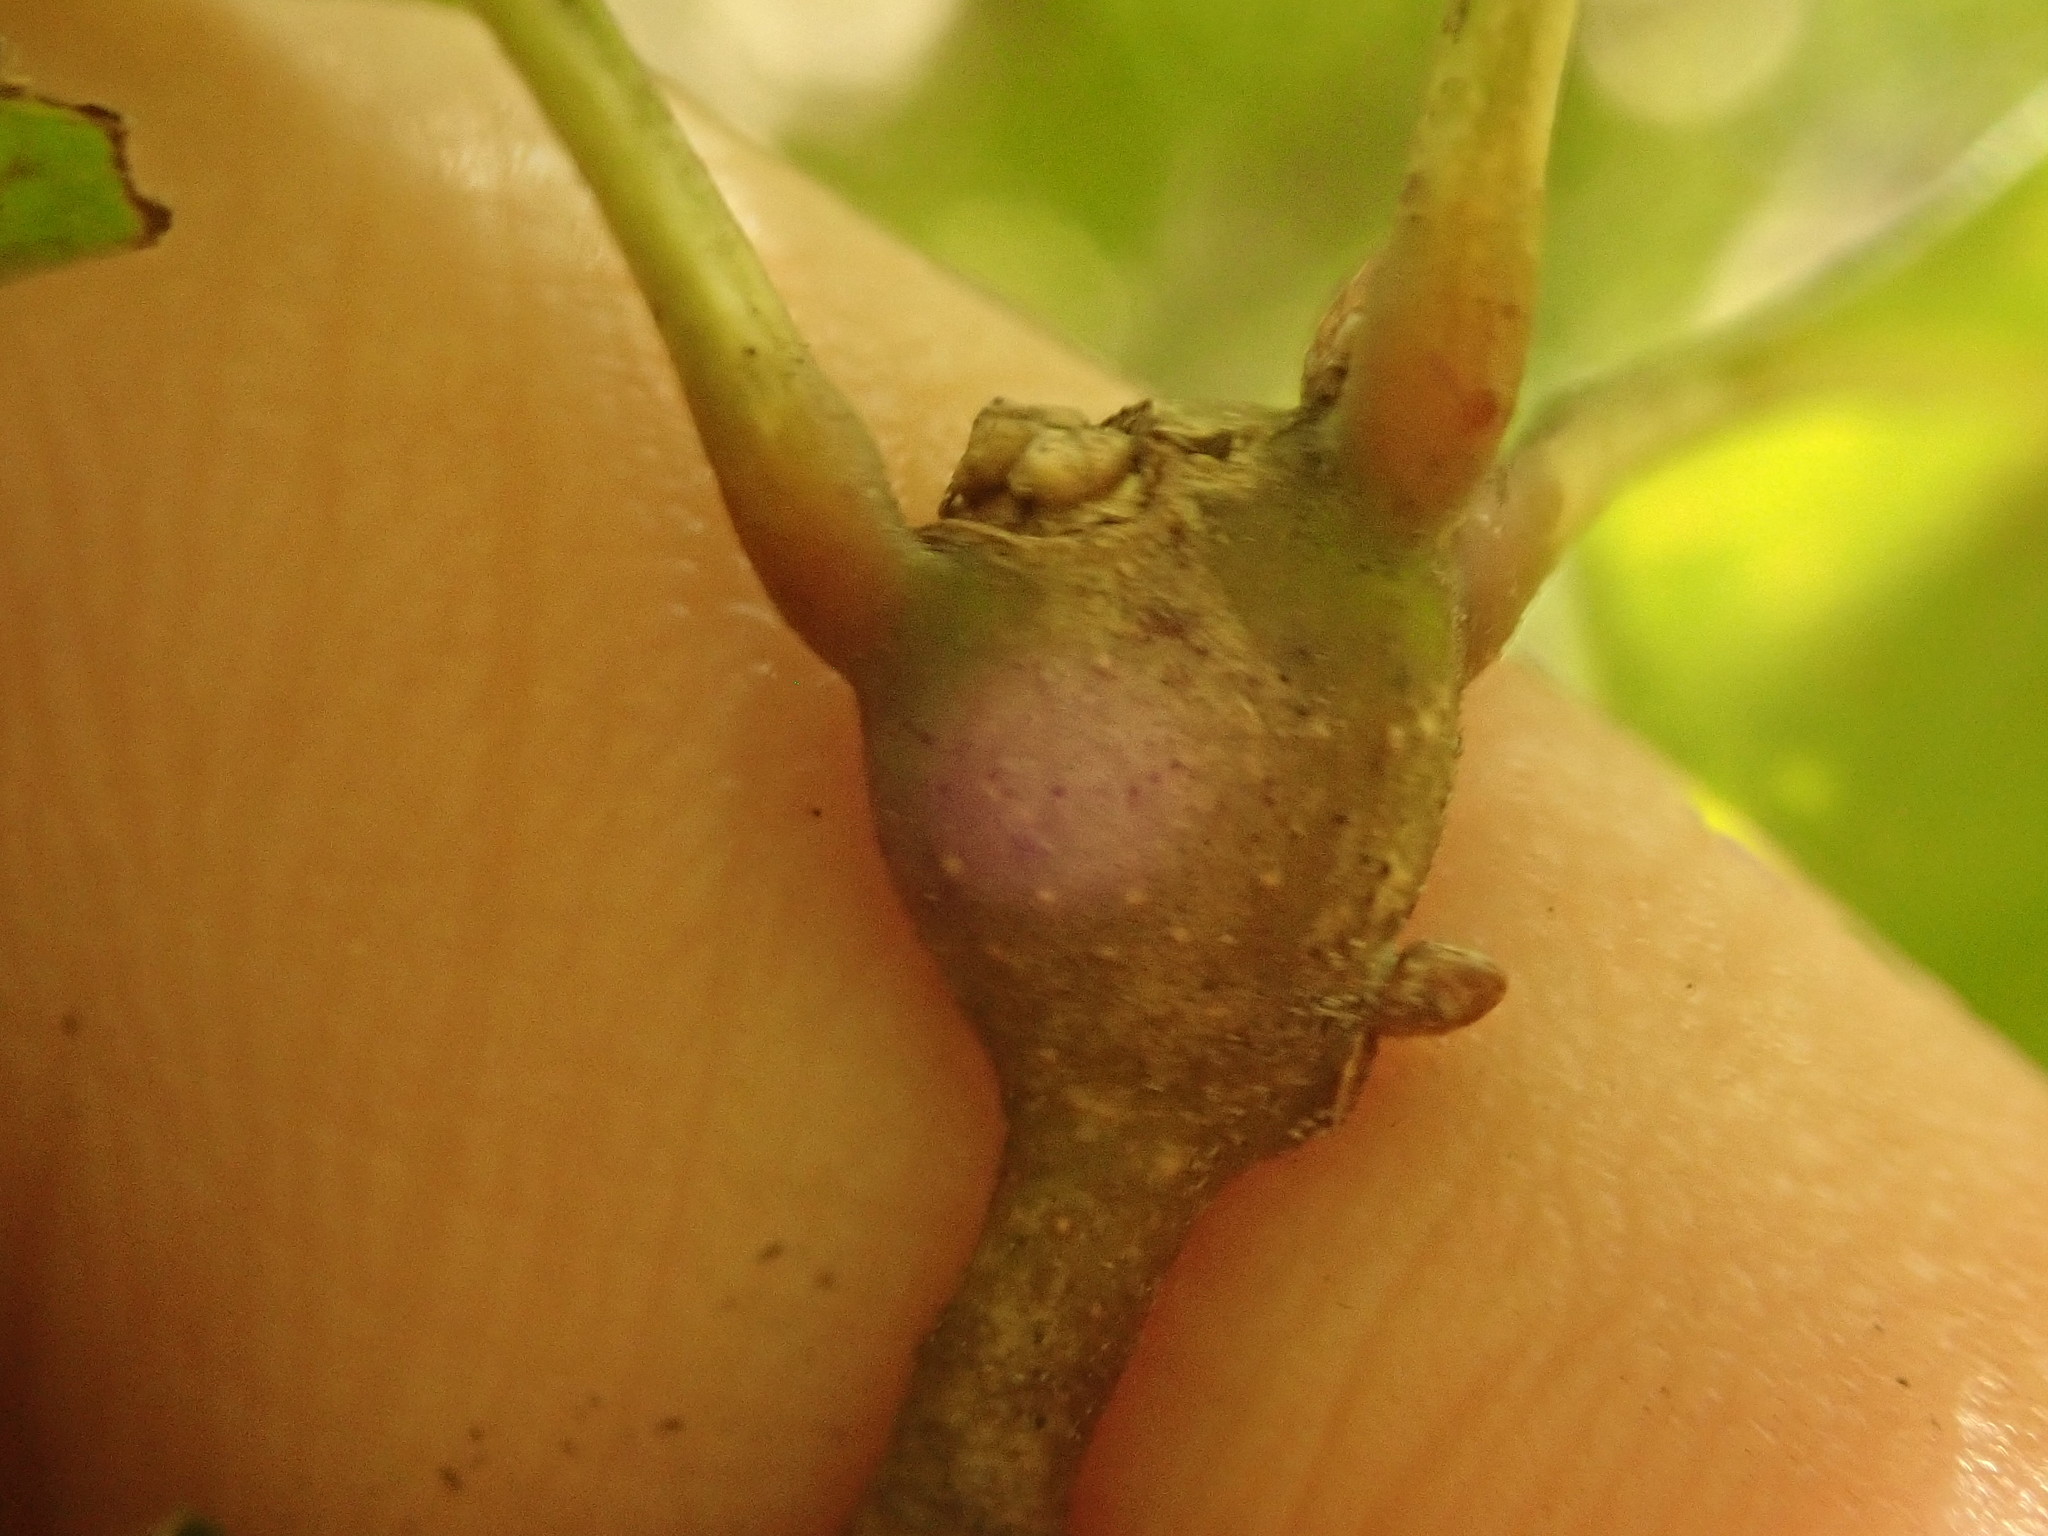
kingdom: Animalia
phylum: Arthropoda
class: Insecta
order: Hymenoptera
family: Cynipidae
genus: Zapatella
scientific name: Zapatella quercusphellos
